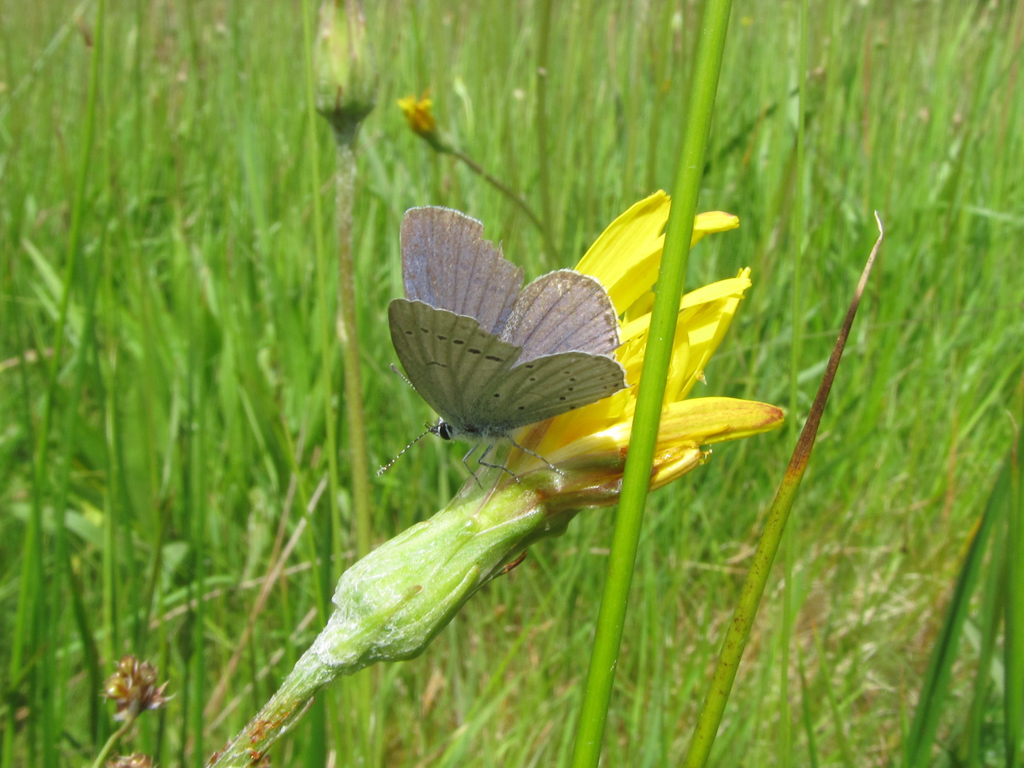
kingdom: Animalia
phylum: Arthropoda
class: Insecta
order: Lepidoptera
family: Lycaenidae
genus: Elkalyce
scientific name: Elkalyce argiades
